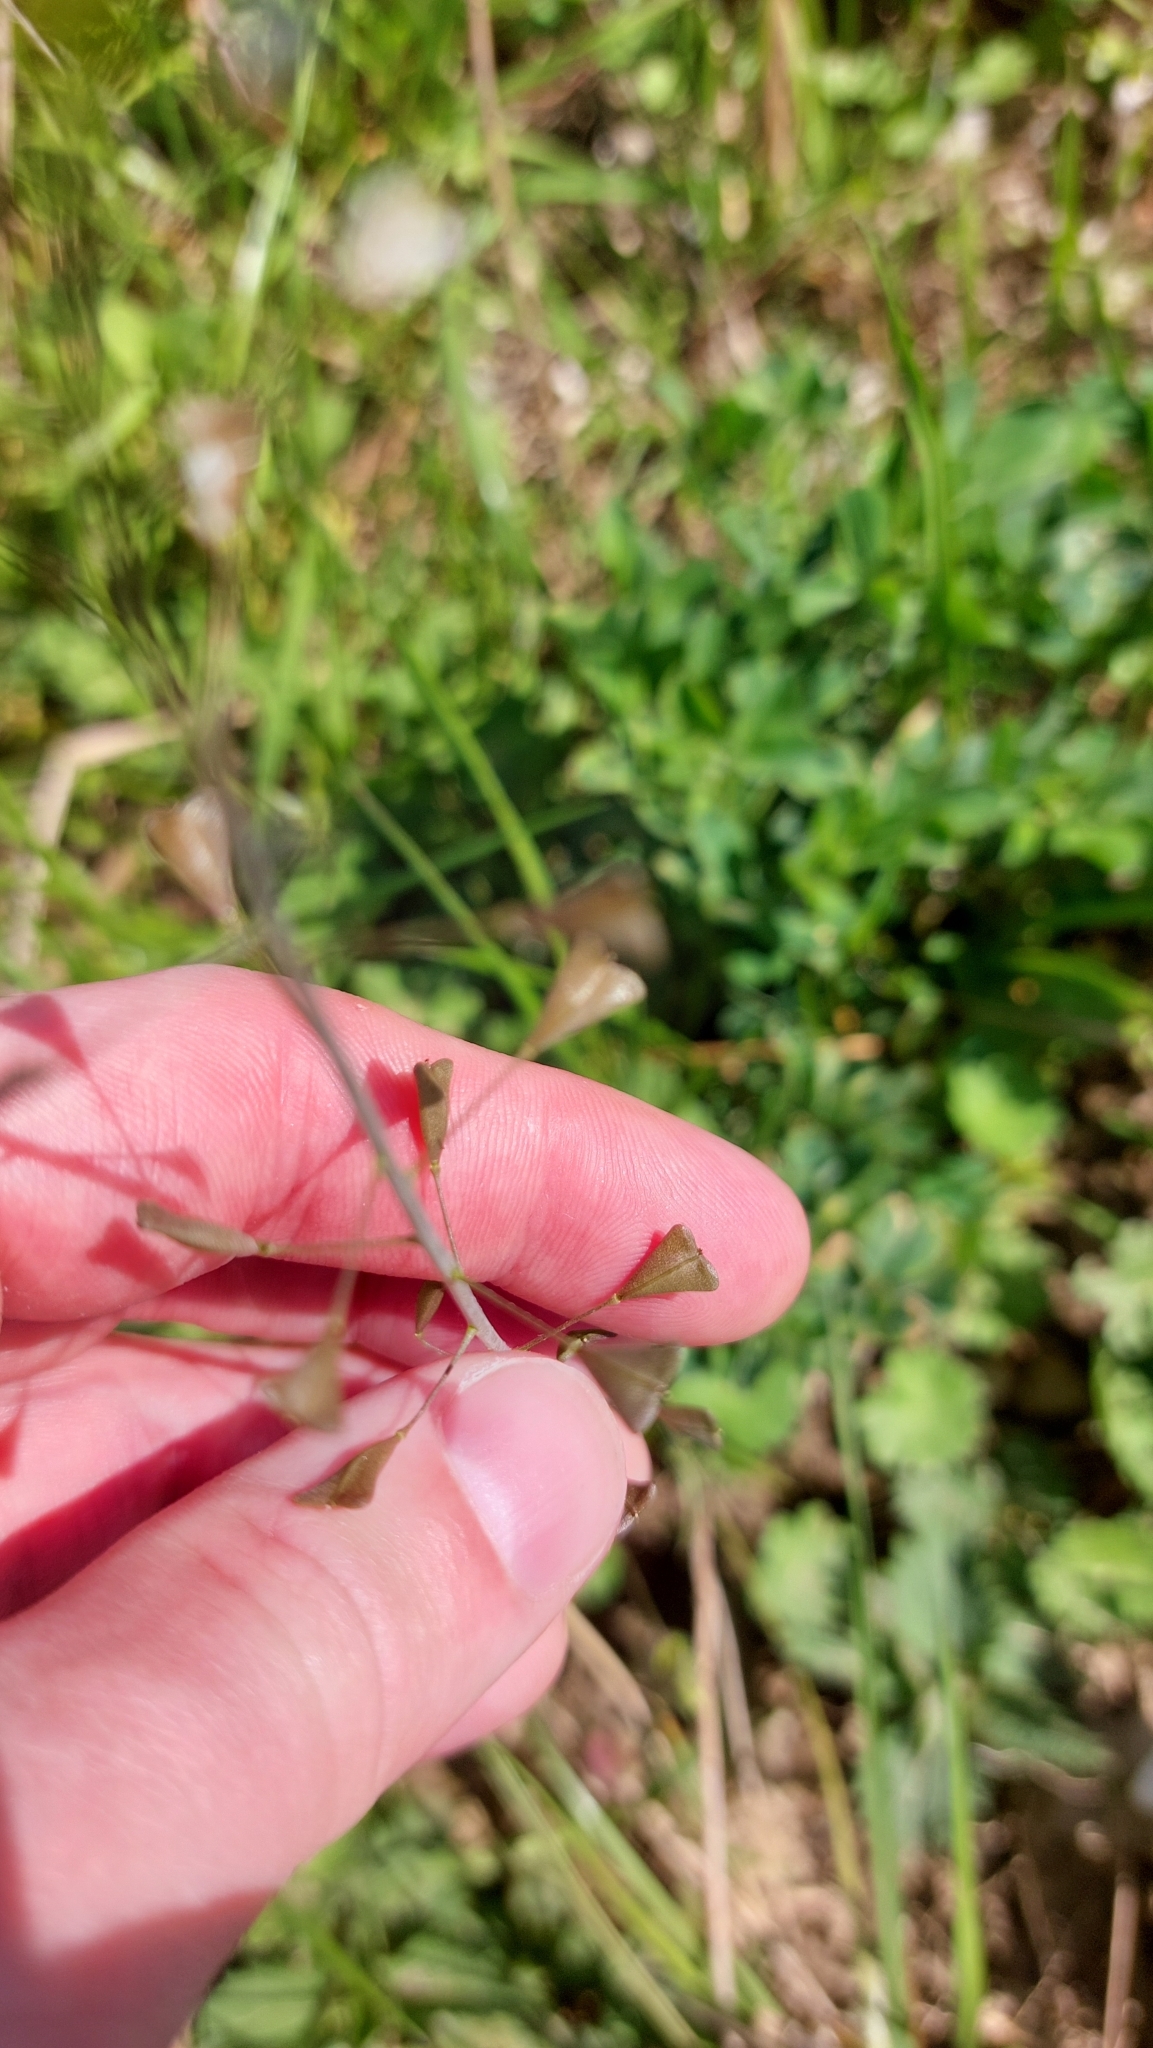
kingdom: Plantae
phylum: Tracheophyta
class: Magnoliopsida
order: Brassicales
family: Brassicaceae
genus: Capsella
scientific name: Capsella bursa-pastoris
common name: Shepherd's purse
